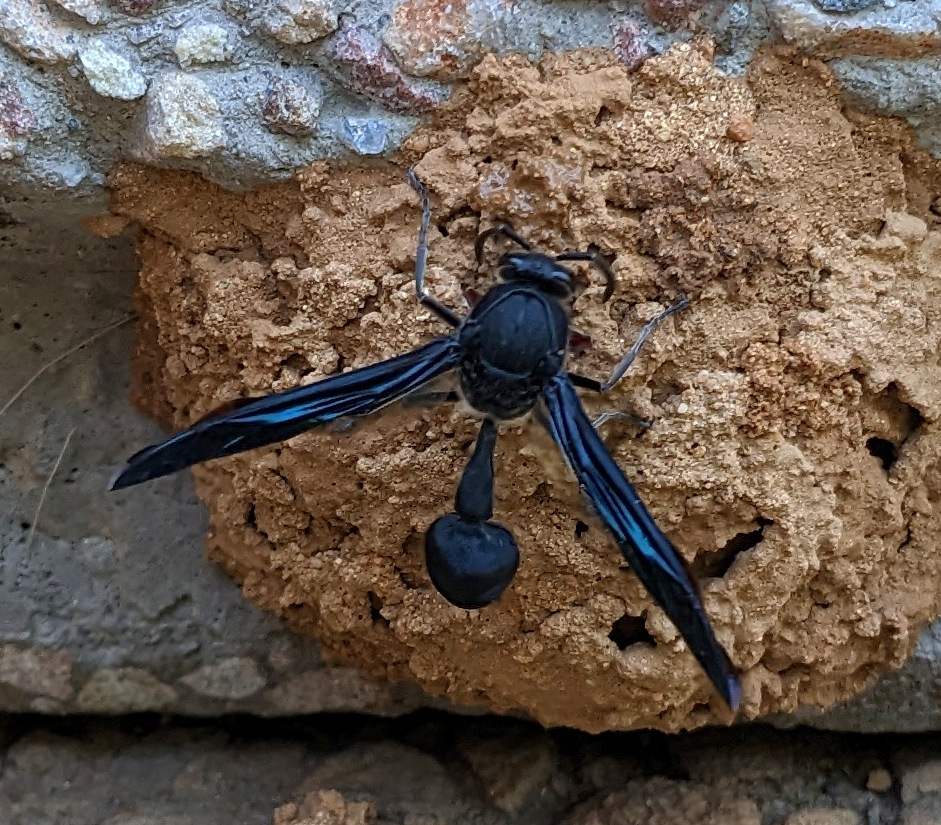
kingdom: Animalia
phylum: Arthropoda
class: Insecta
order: Hymenoptera
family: Eumenidae
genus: Delta
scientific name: Delta bonellii
